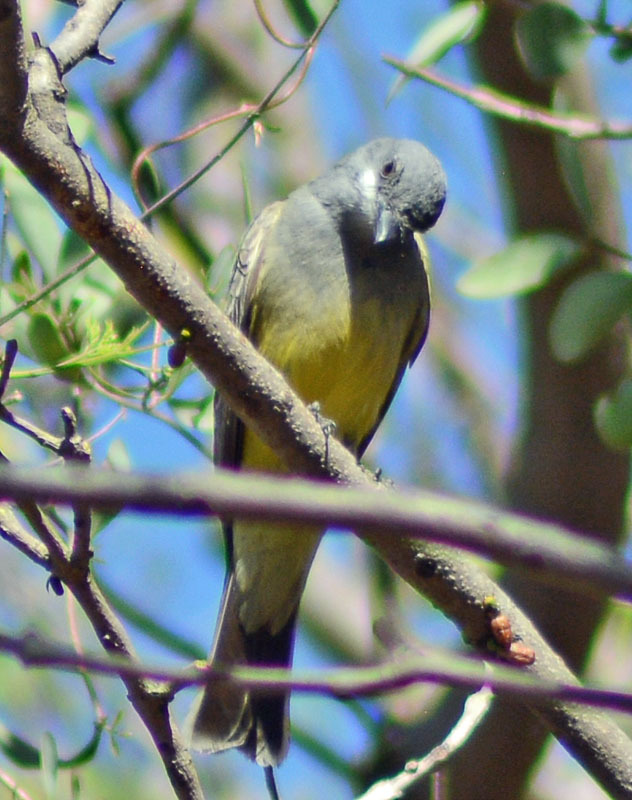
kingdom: Animalia
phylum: Chordata
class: Aves
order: Passeriformes
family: Tyrannidae
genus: Tyrannus
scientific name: Tyrannus vociferans
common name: Cassin's kingbird
